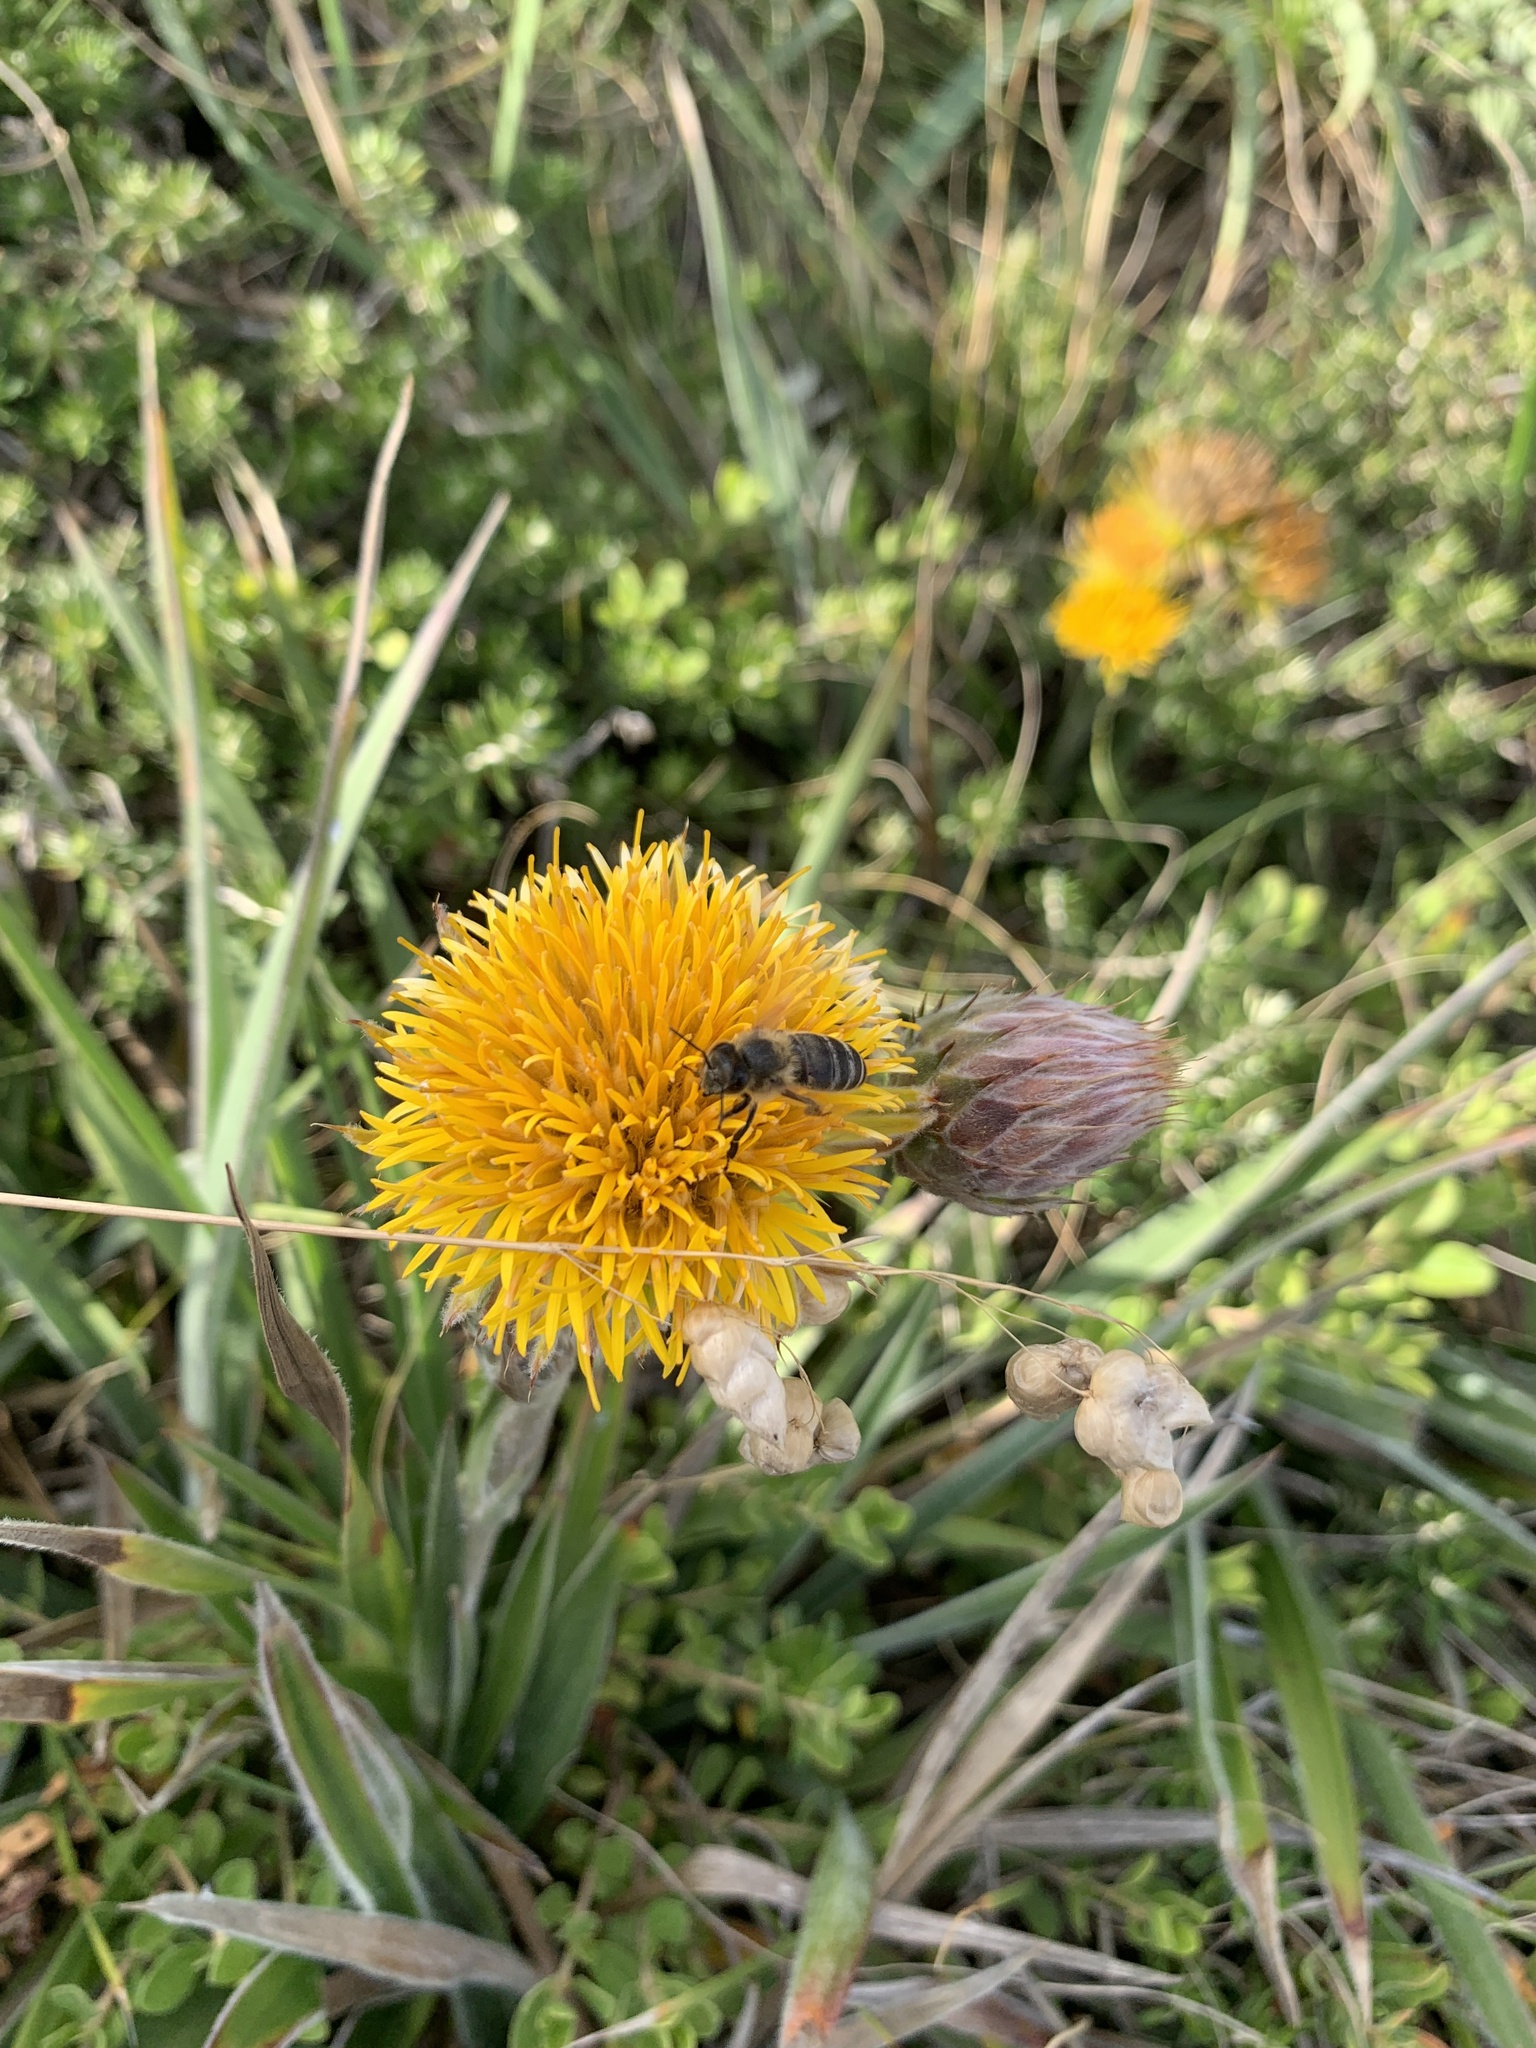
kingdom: Animalia
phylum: Arthropoda
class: Insecta
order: Hymenoptera
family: Apidae
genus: Apis
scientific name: Apis mellifera
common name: Honey bee
